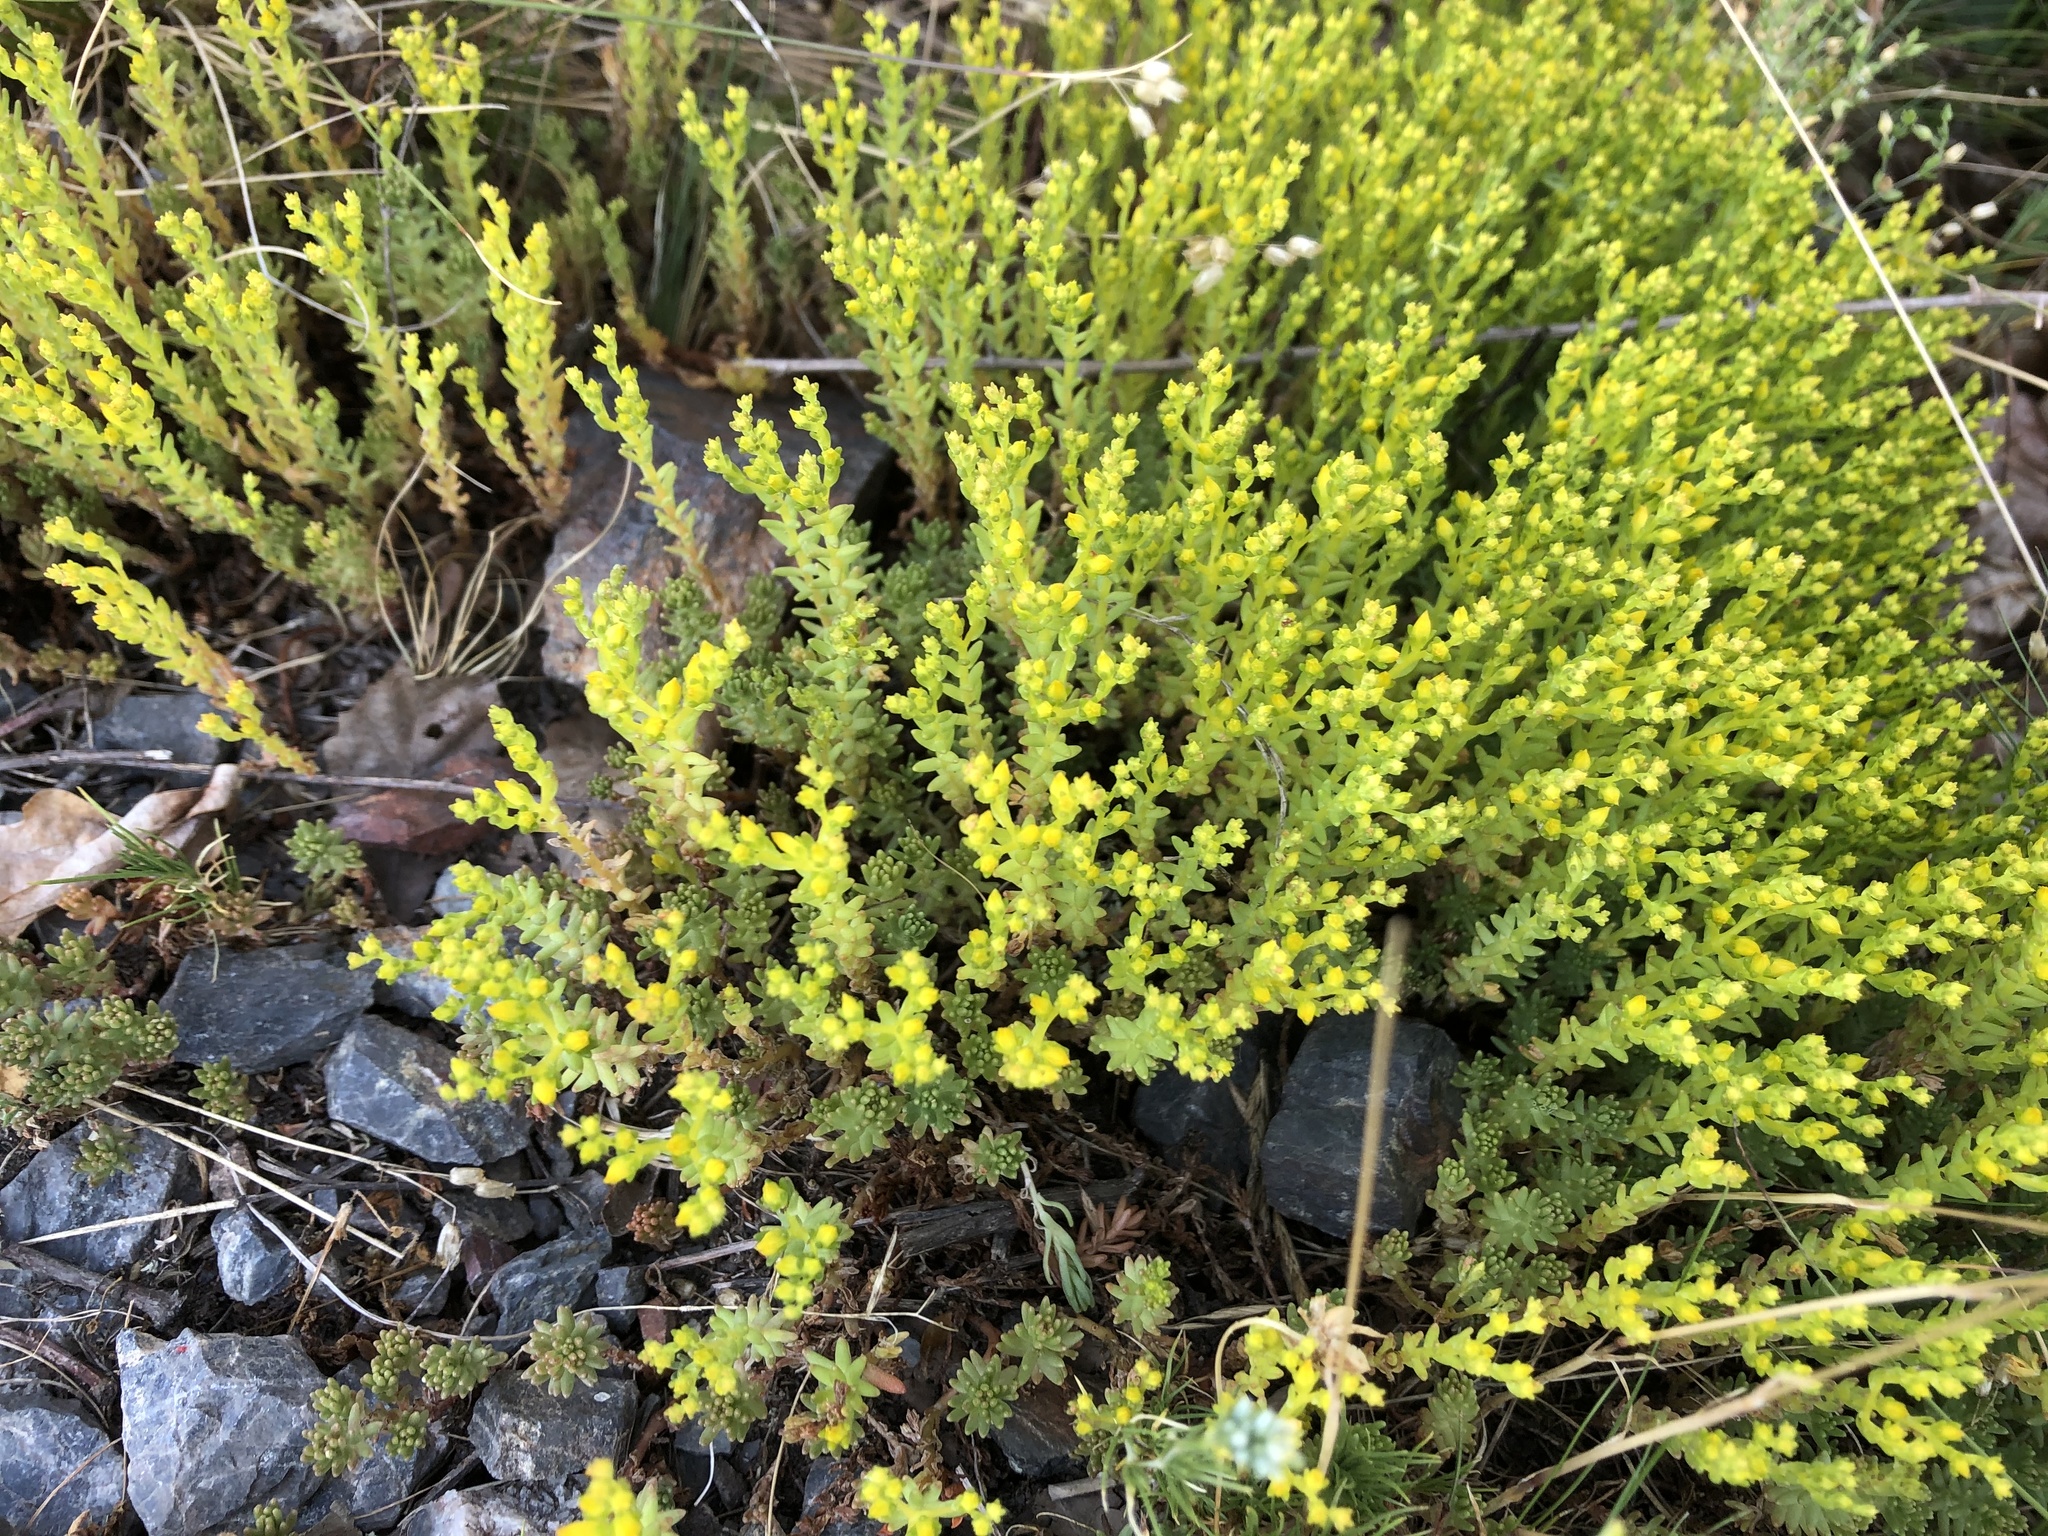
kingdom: Plantae
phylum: Tracheophyta
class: Magnoliopsida
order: Saxifragales
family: Crassulaceae
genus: Sedum
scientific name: Sedum sexangulare
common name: Tasteless stonecrop
